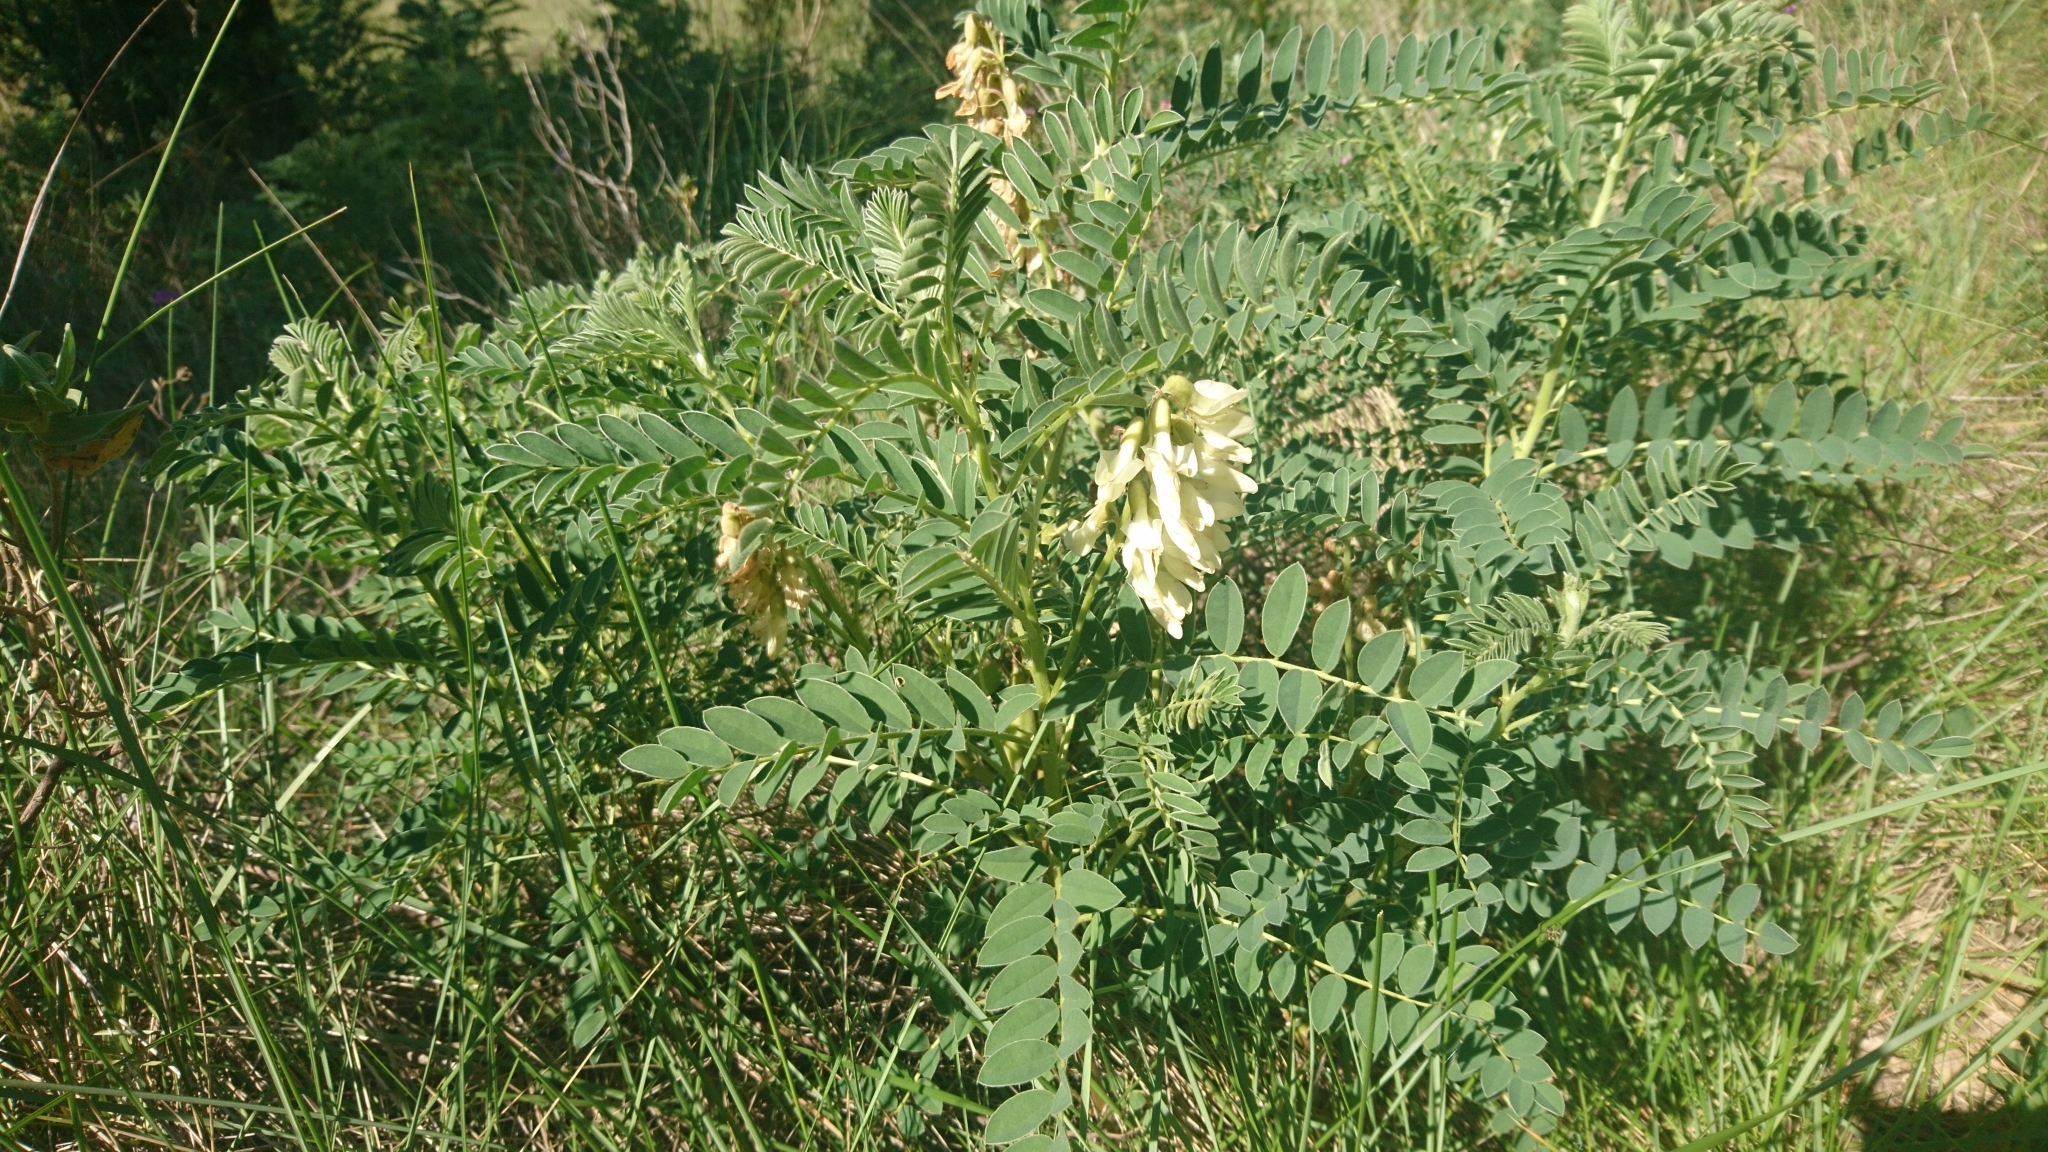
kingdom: Plantae
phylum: Tracheophyta
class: Magnoliopsida
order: Fabales
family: Fabaceae
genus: Erophaca
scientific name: Erophaca baetica
